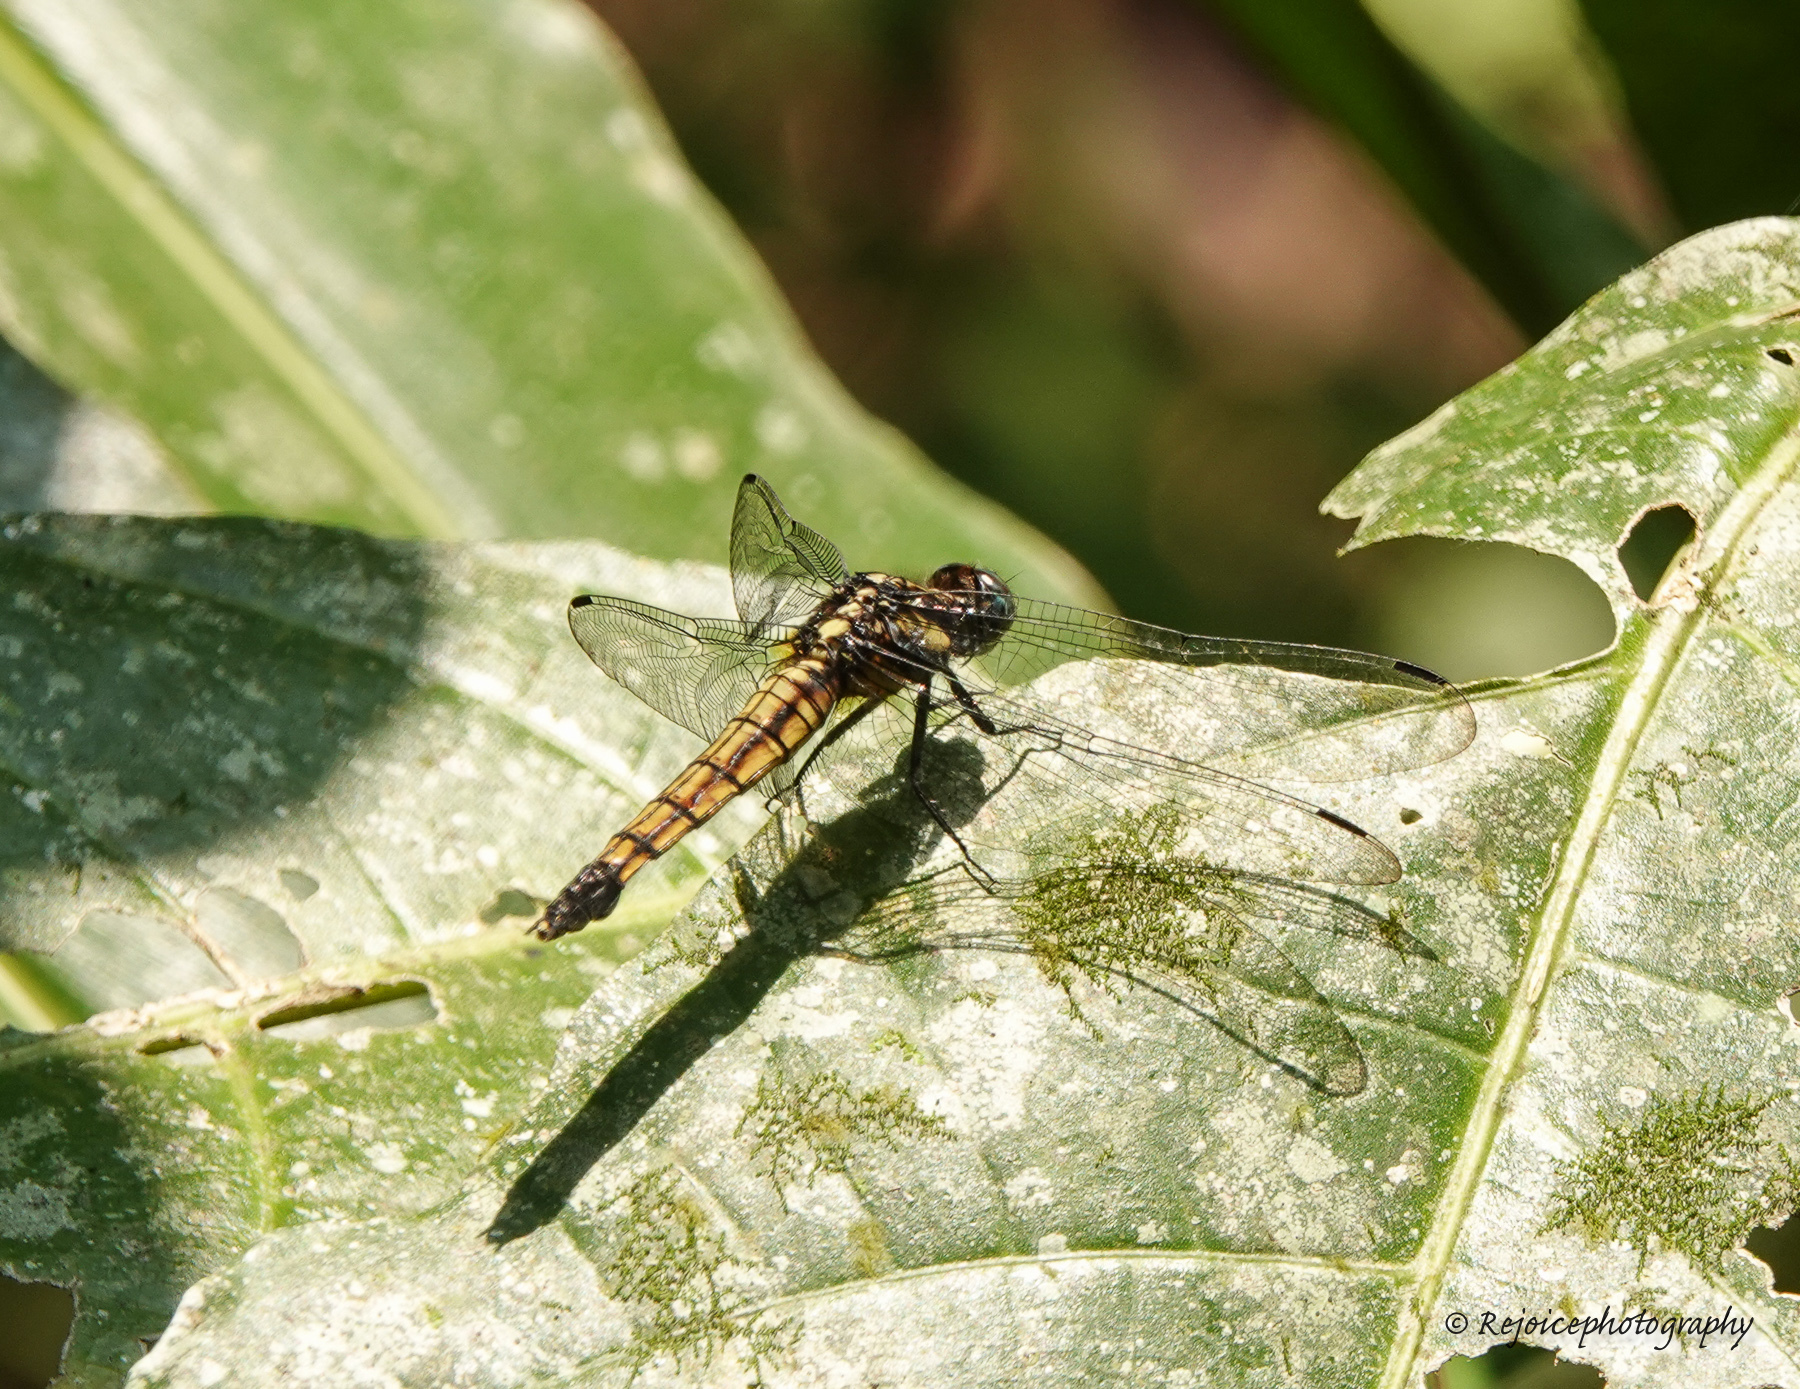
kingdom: Animalia
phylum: Arthropoda
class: Insecta
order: Odonata
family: Libellulidae
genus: Orthetrum
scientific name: Orthetrum triangulare
